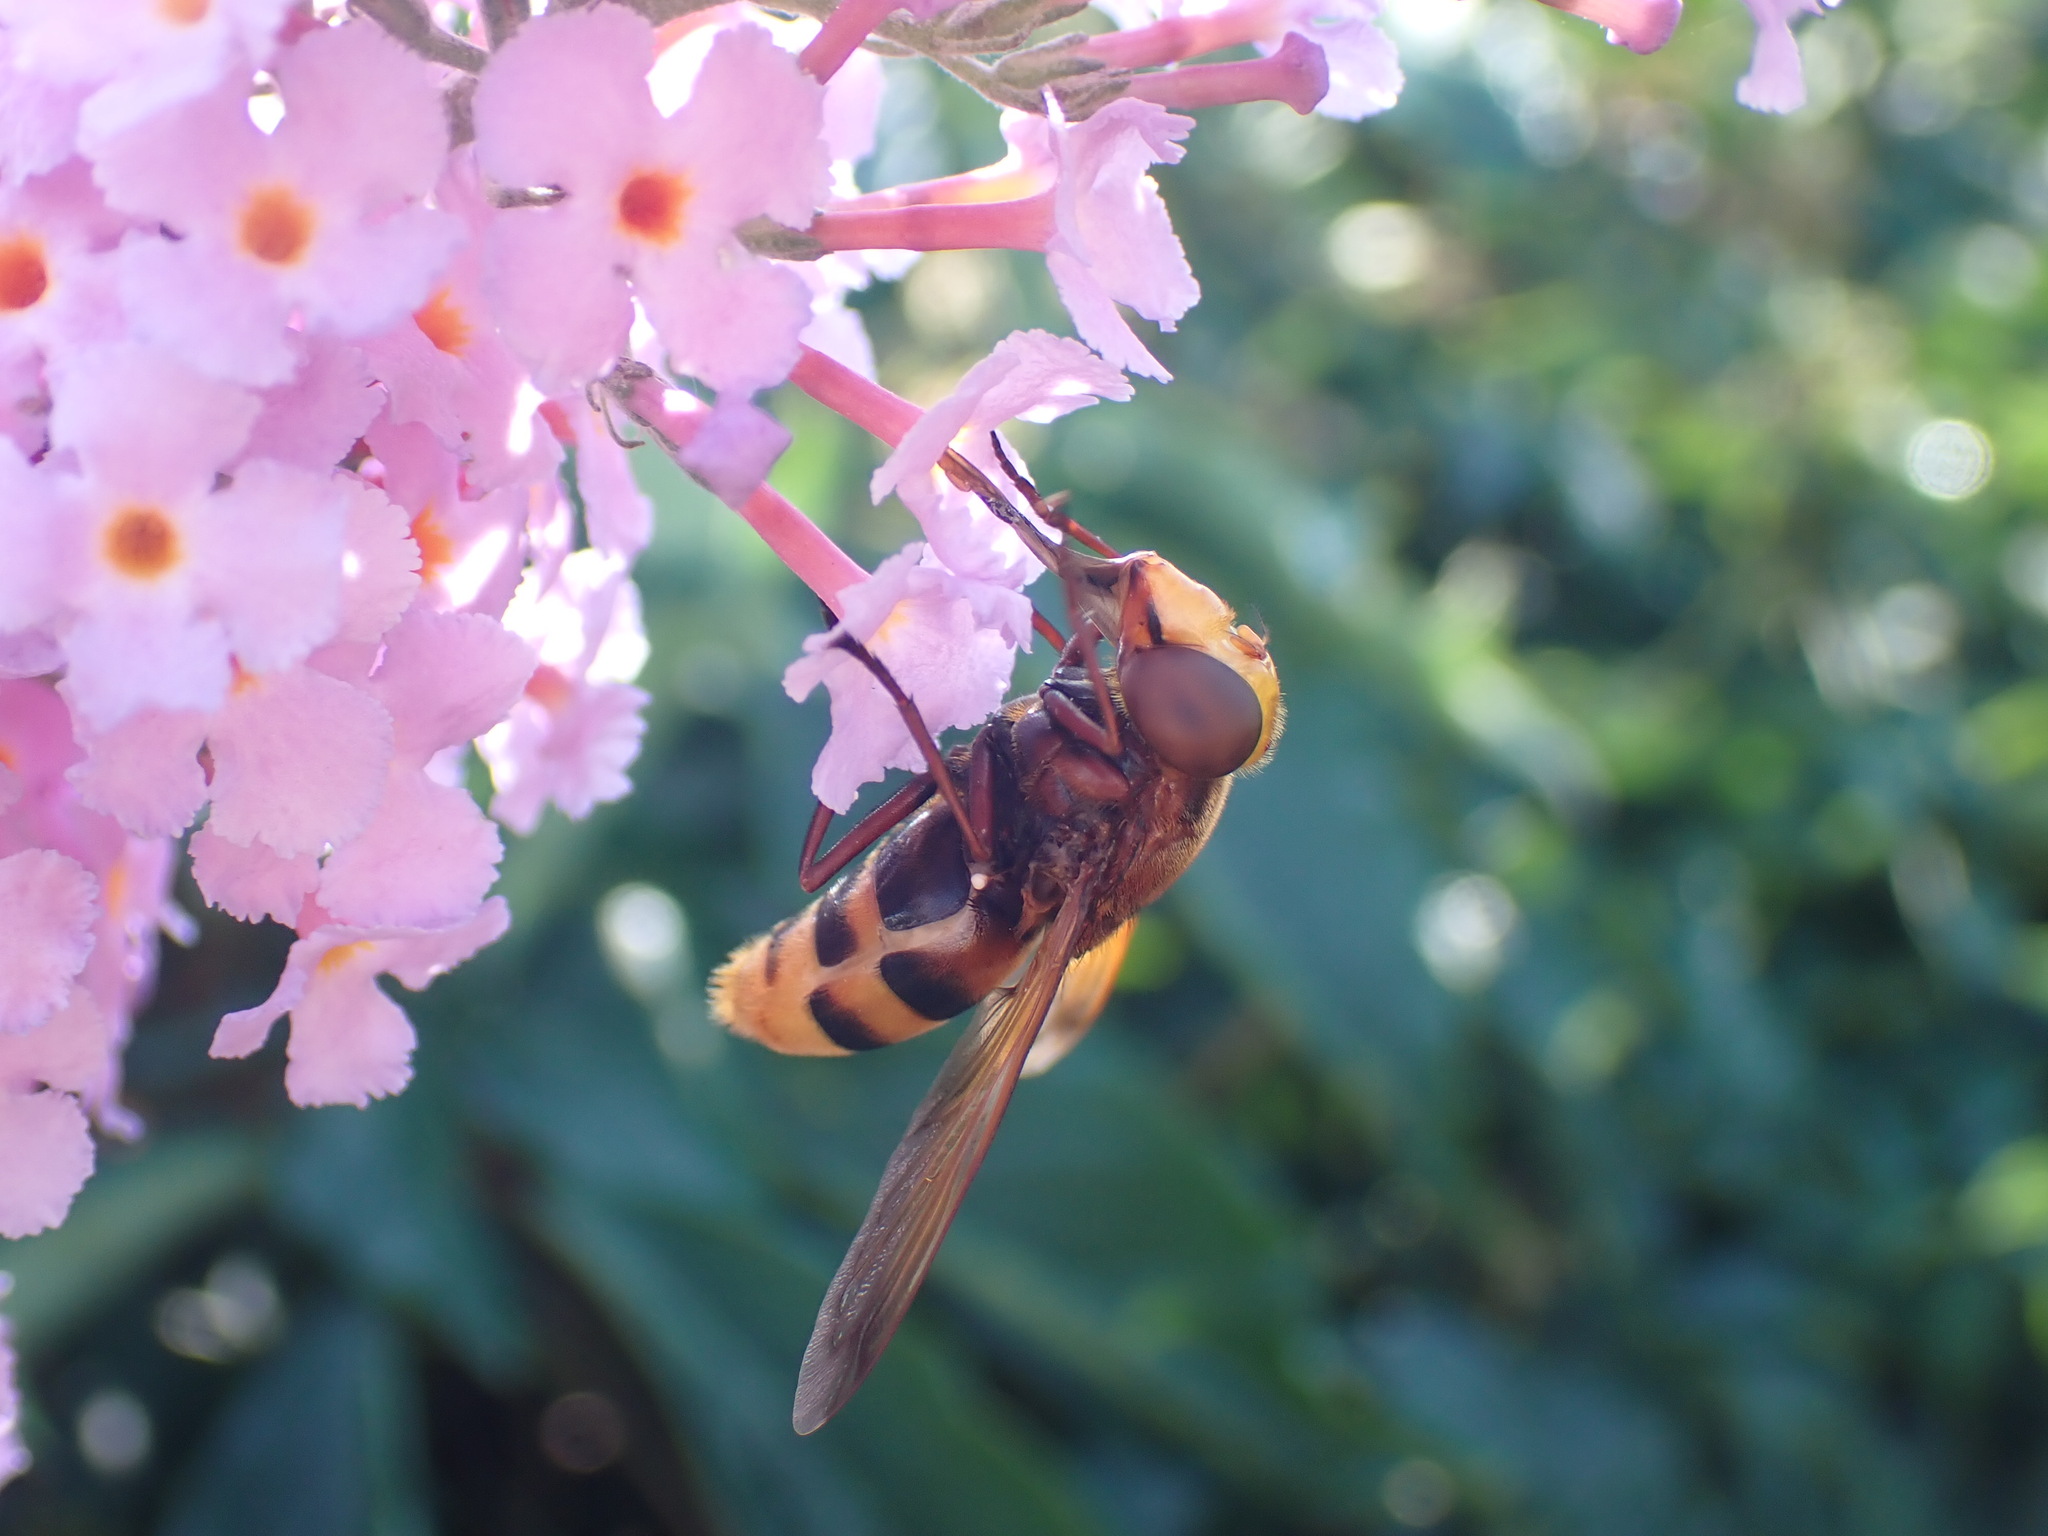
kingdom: Animalia
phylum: Arthropoda
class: Insecta
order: Diptera
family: Syrphidae
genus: Volucella
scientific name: Volucella zonaria
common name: Hornet hoverfly
